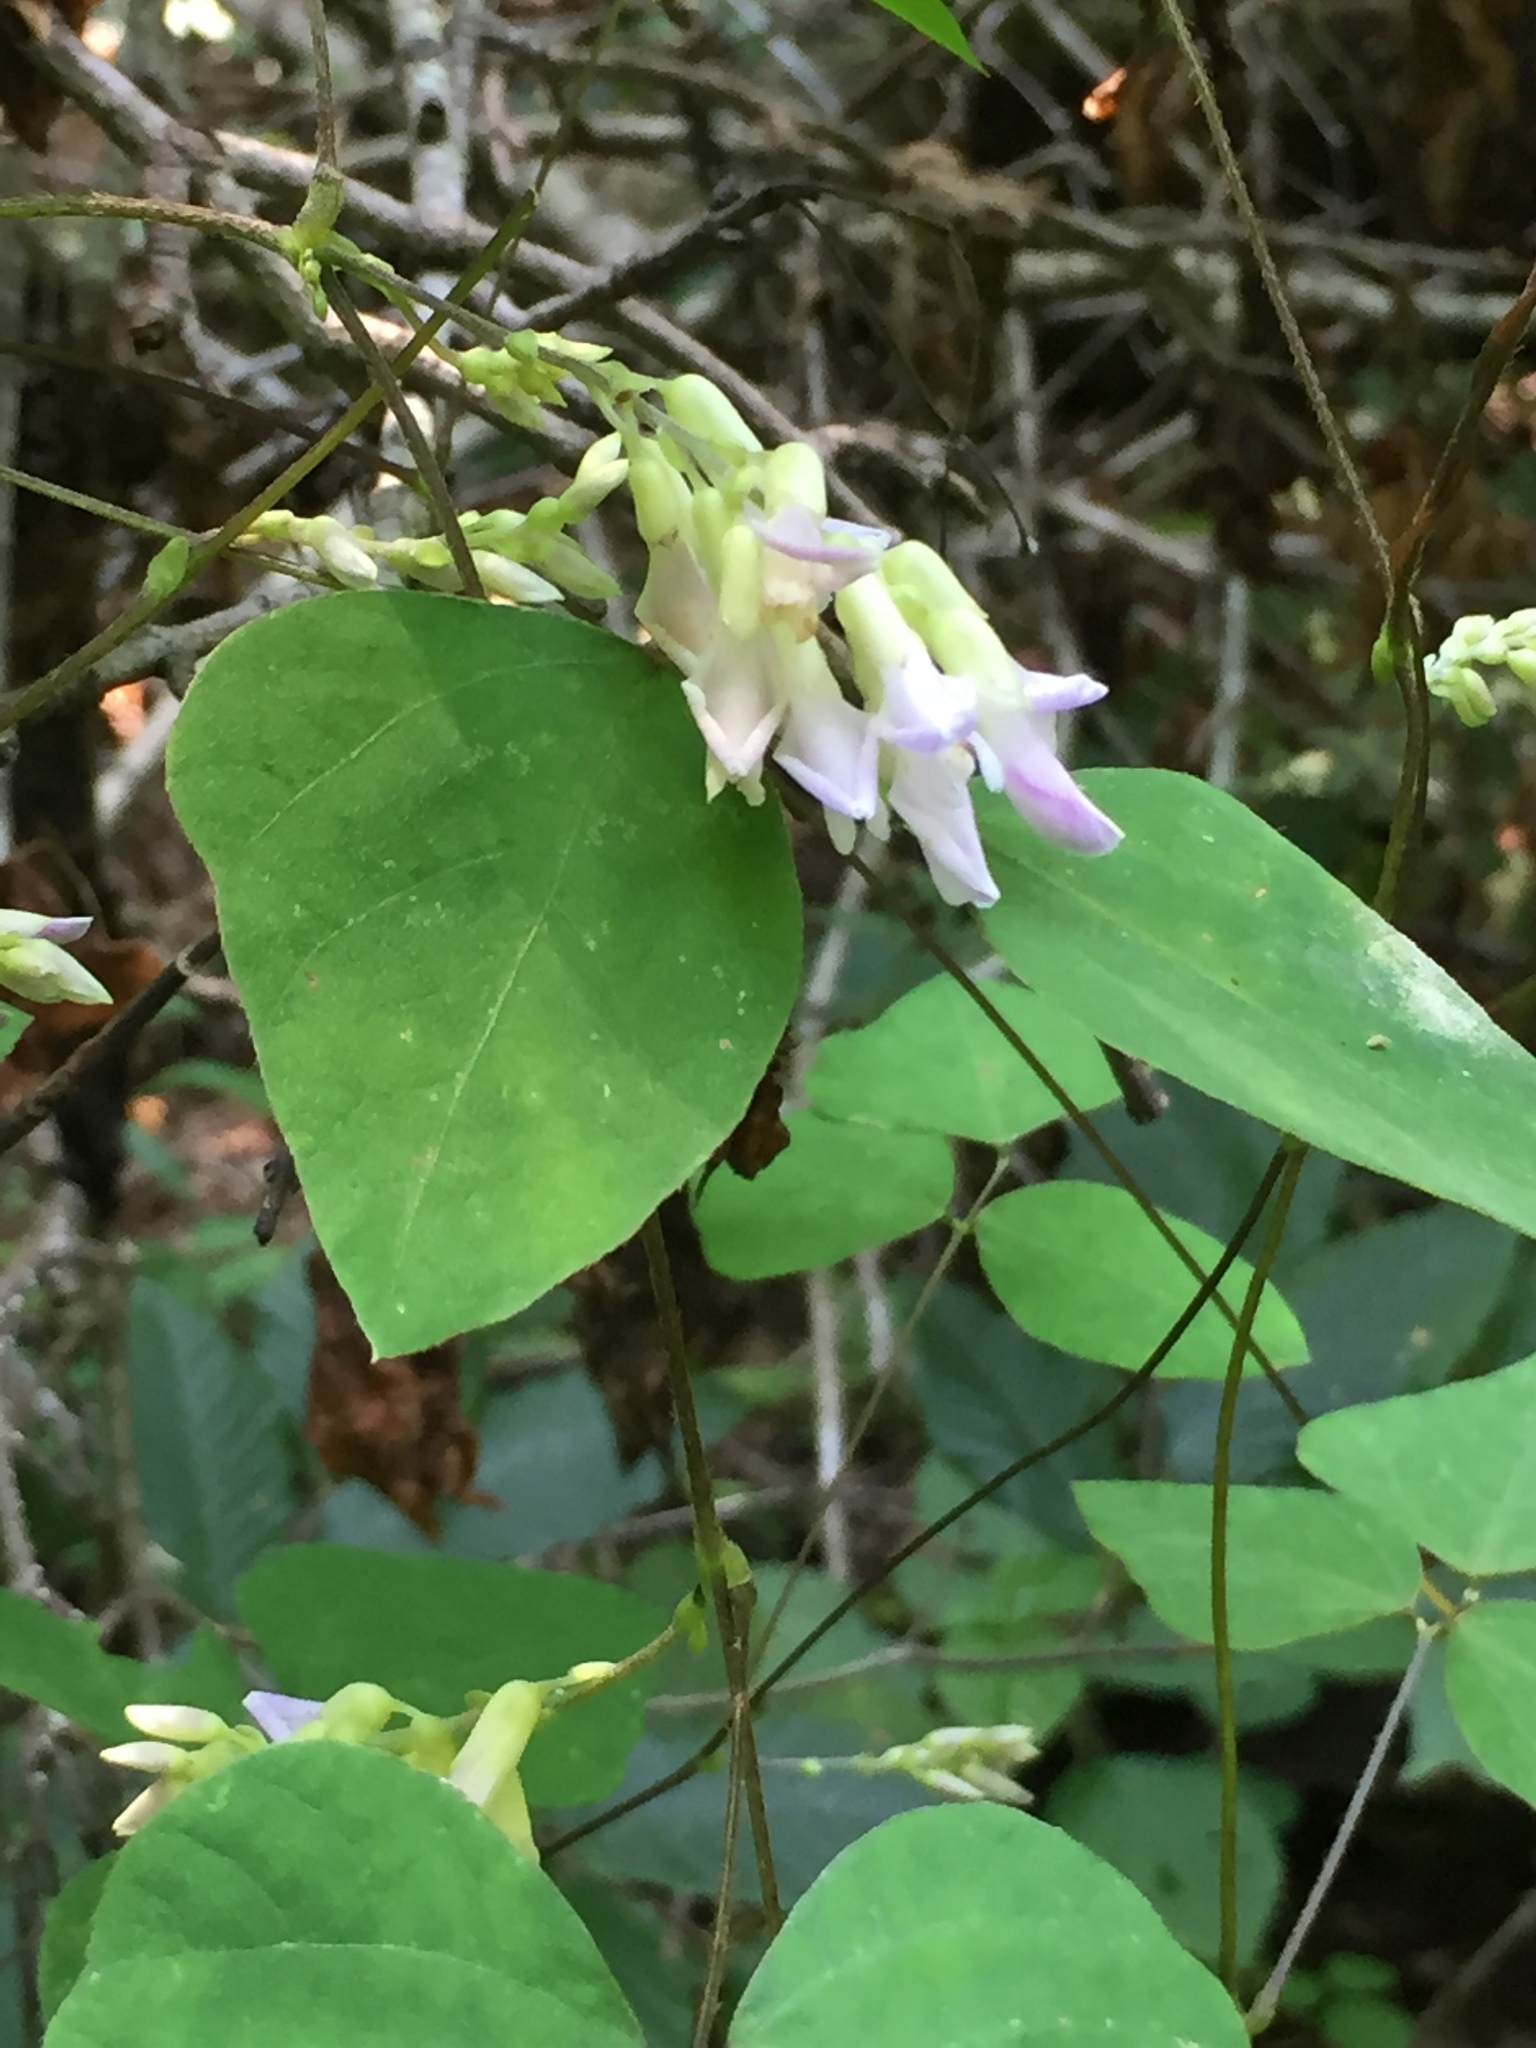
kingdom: Plantae
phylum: Tracheophyta
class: Magnoliopsida
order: Fabales
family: Fabaceae
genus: Amphicarpaea
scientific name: Amphicarpaea bracteata
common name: American hog peanut
